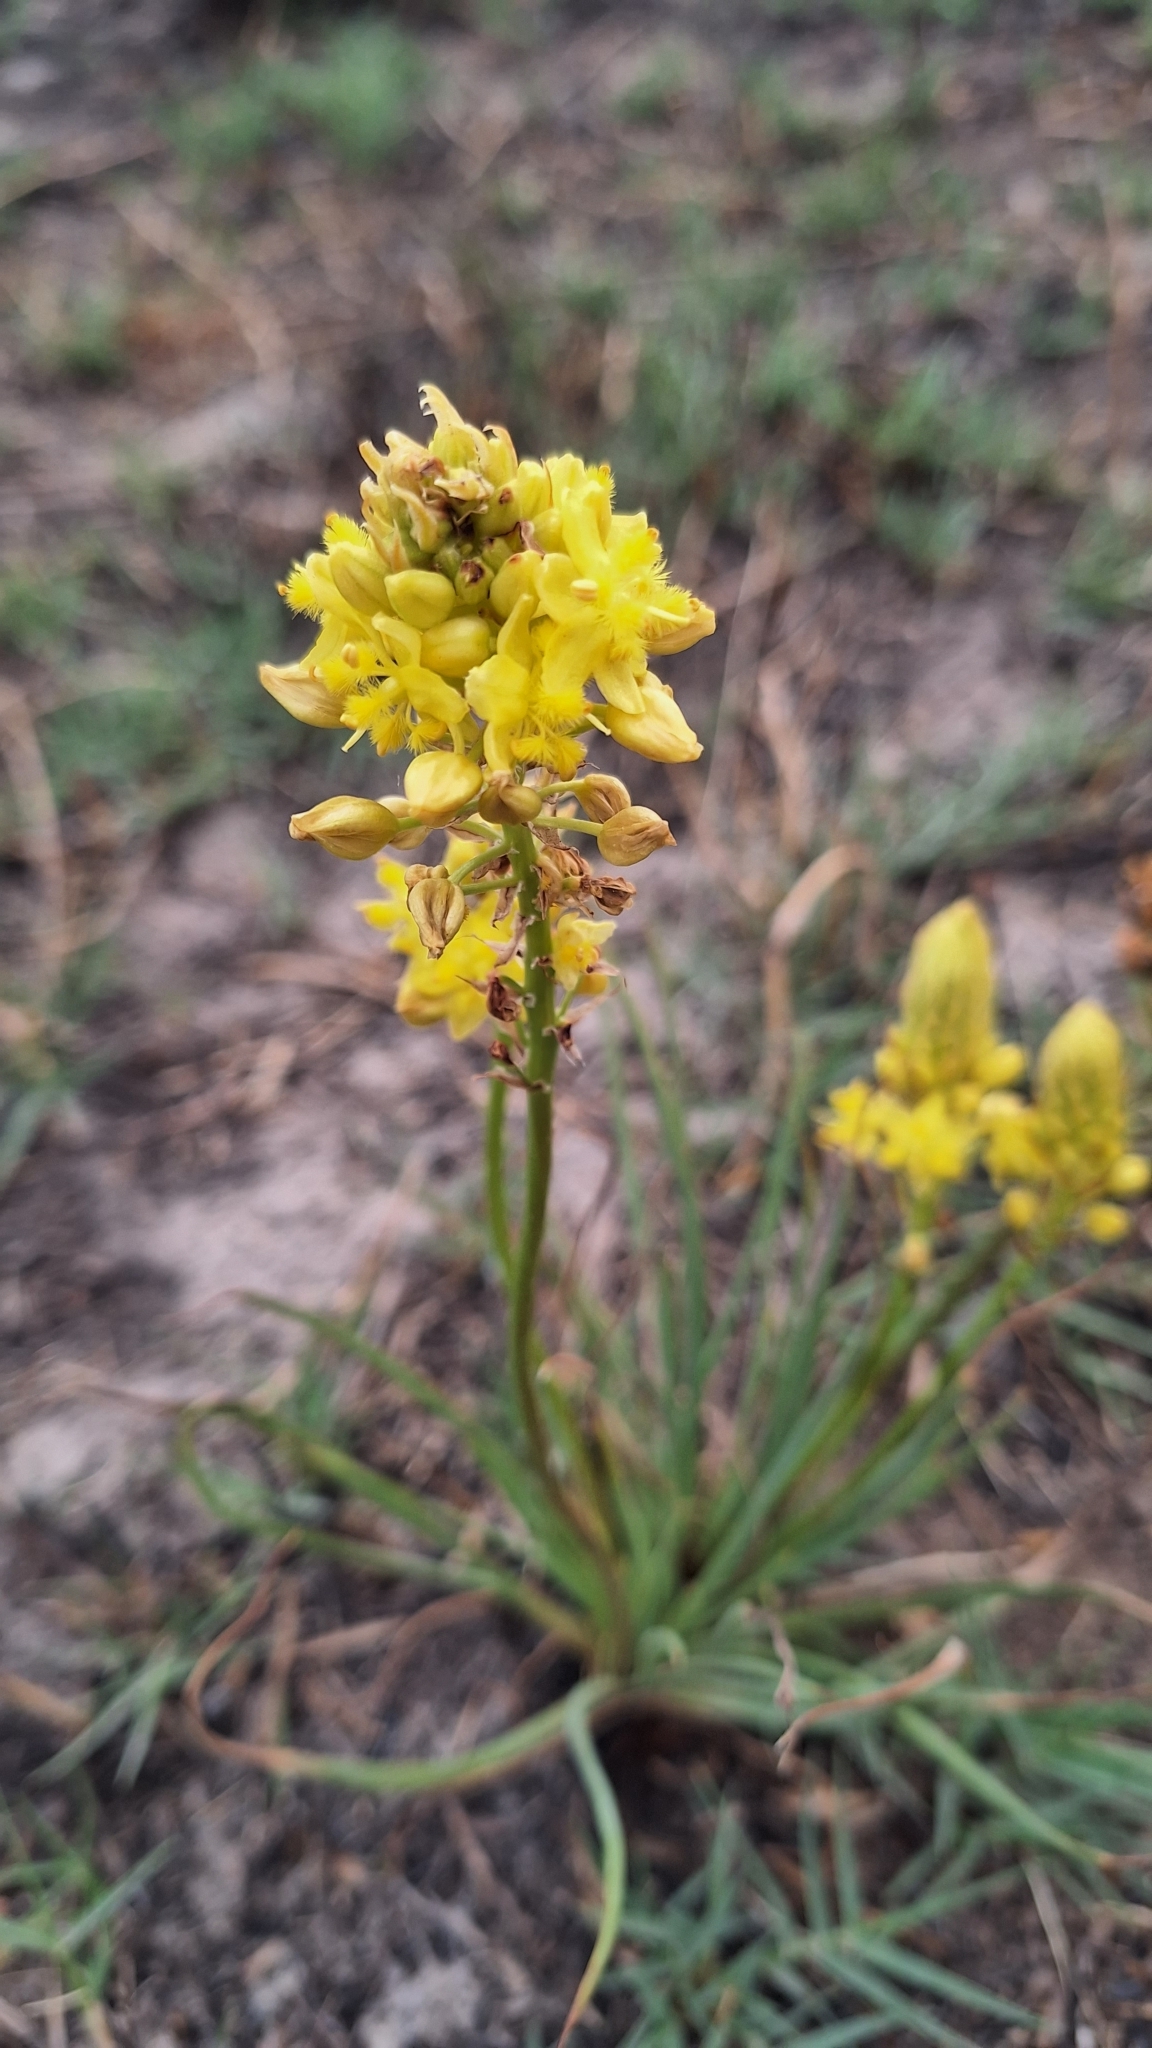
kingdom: Plantae
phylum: Tracheophyta
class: Liliopsida
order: Asparagales
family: Asphodelaceae
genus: Bulbine
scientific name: Bulbine abyssinica
